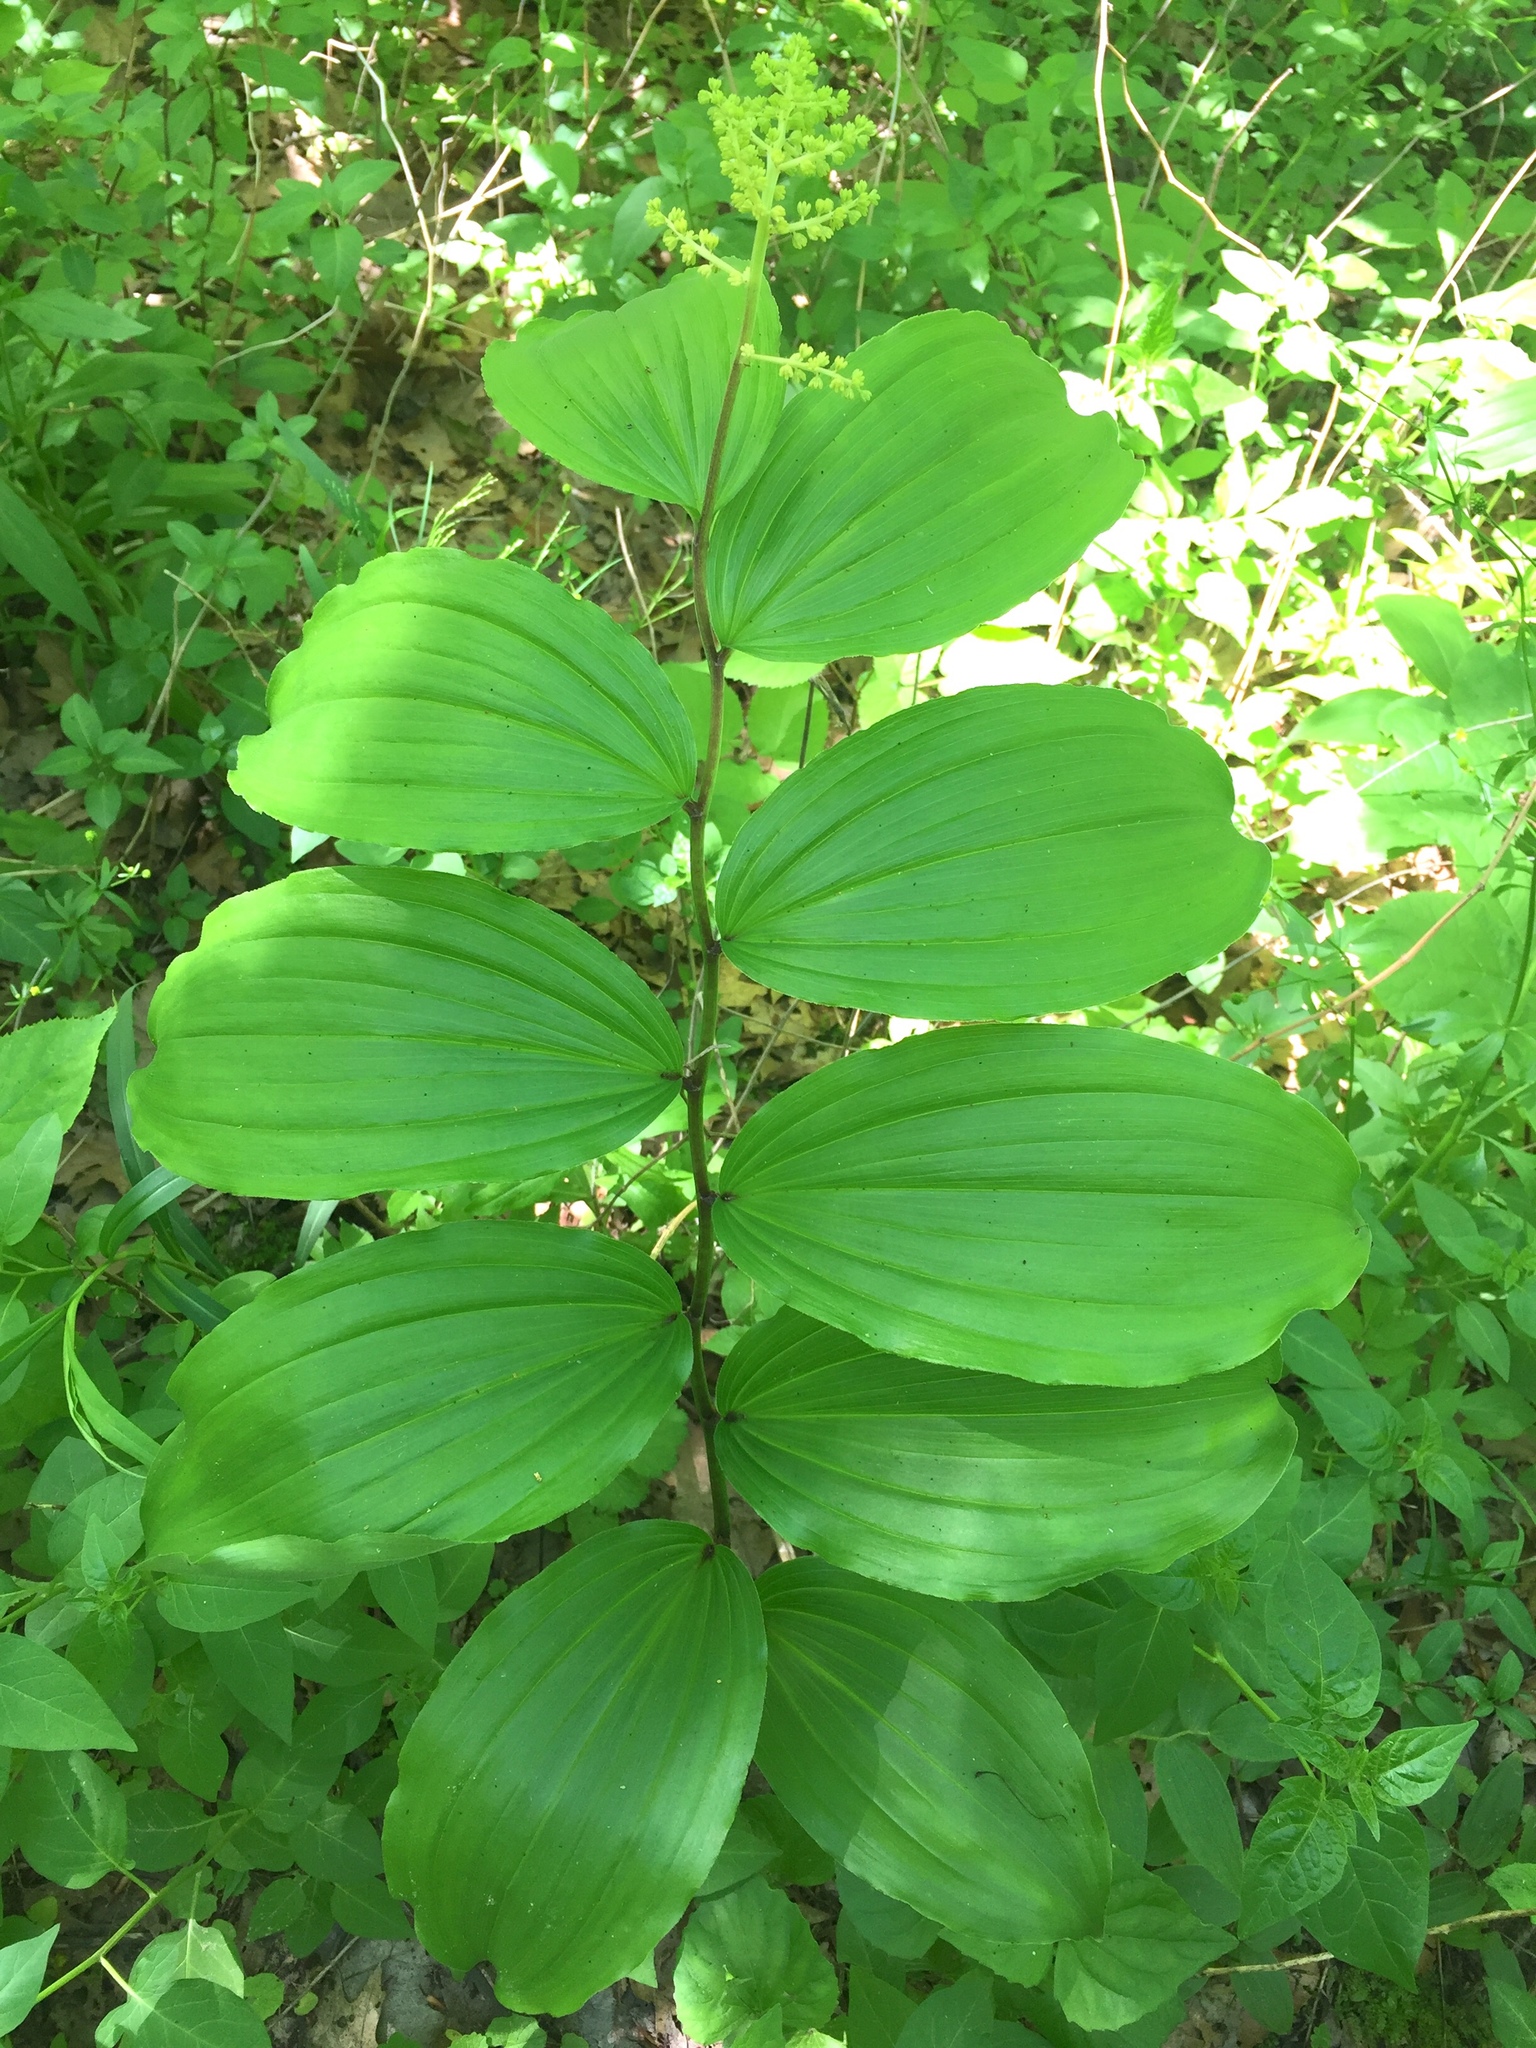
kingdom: Plantae
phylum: Tracheophyta
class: Liliopsida
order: Asparagales
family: Asparagaceae
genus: Maianthemum
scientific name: Maianthemum racemosum
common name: False spikenard
